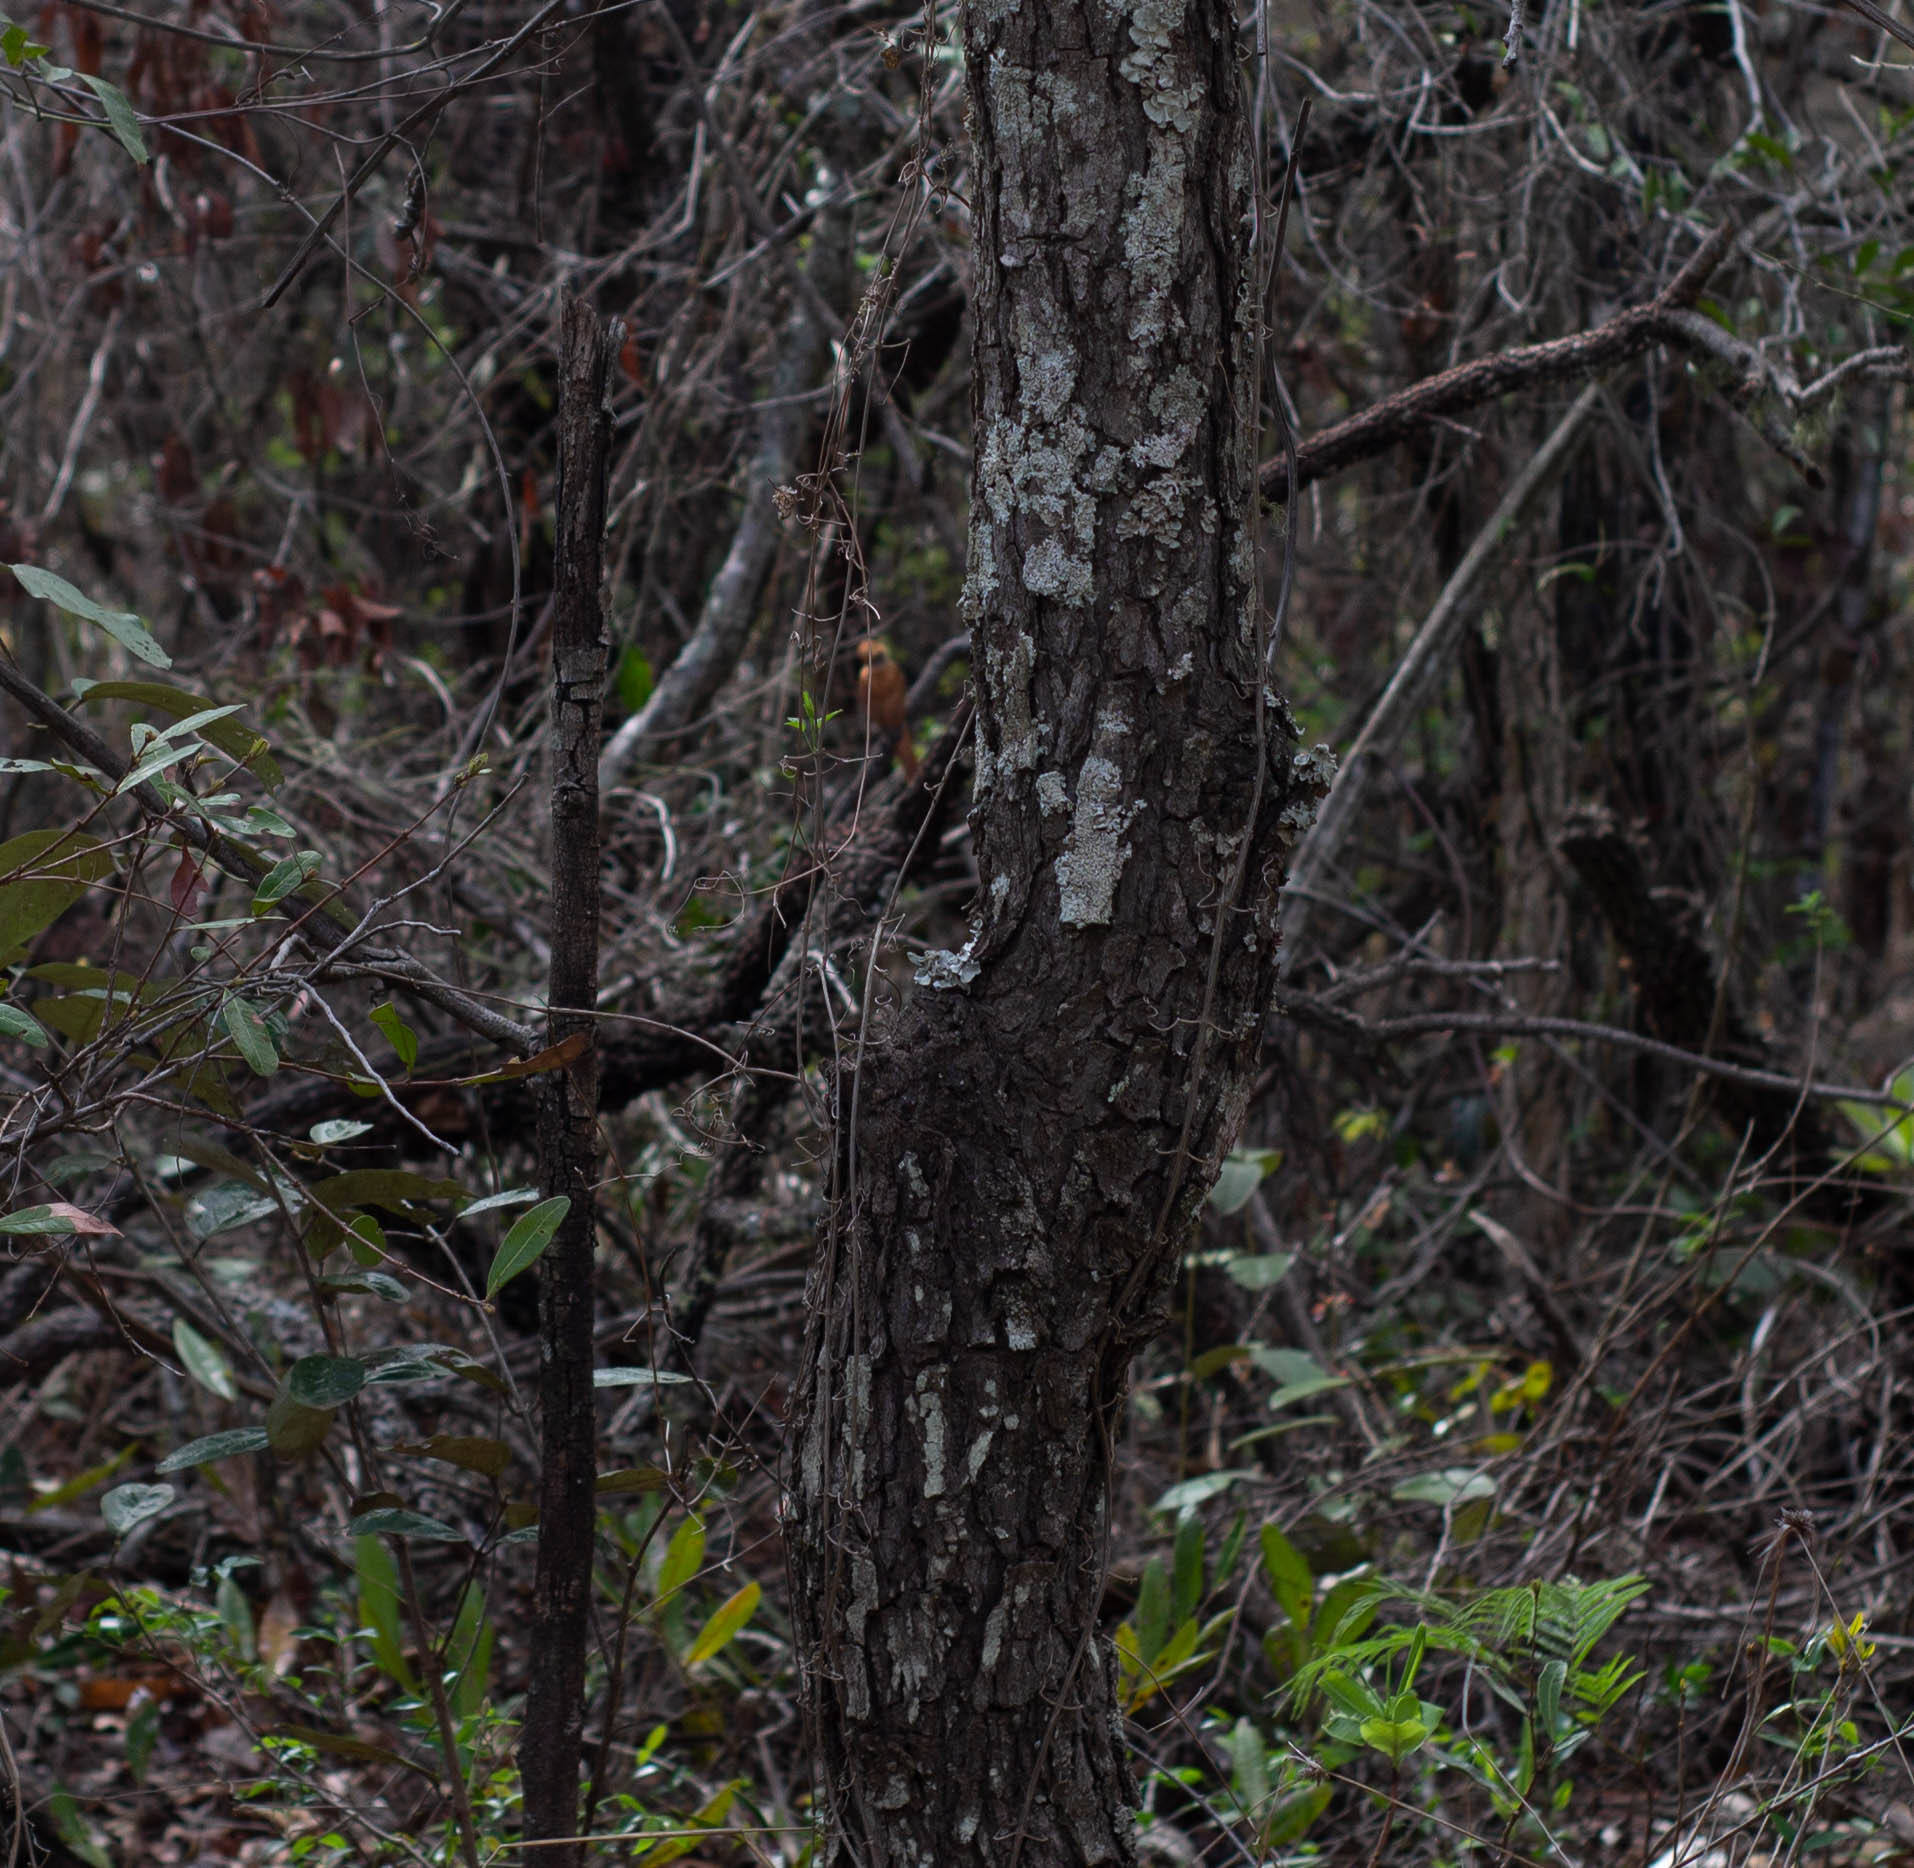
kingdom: Animalia
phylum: Chordata
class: Aves
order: Passeriformes
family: Tyrannidae
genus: Casiornis
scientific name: Casiornis rufus
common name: Rufous casiornis
